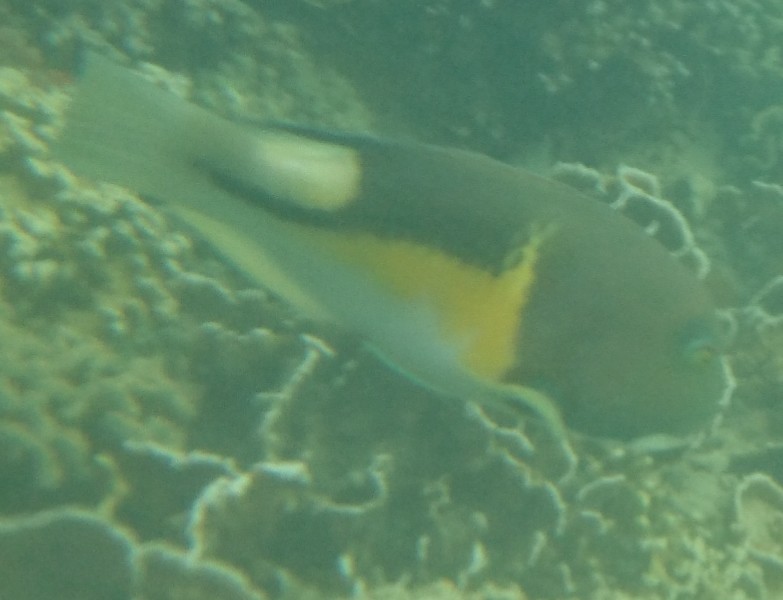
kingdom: Animalia
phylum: Chordata
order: Perciformes
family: Labridae
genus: Choerodon
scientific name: Choerodon anchorago
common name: Anchor tuskfish
